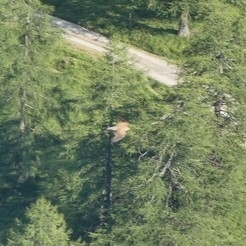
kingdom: Animalia
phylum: Chordata
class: Aves
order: Falconiformes
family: Falconidae
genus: Falco
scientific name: Falco tinnunculus
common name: Common kestrel
